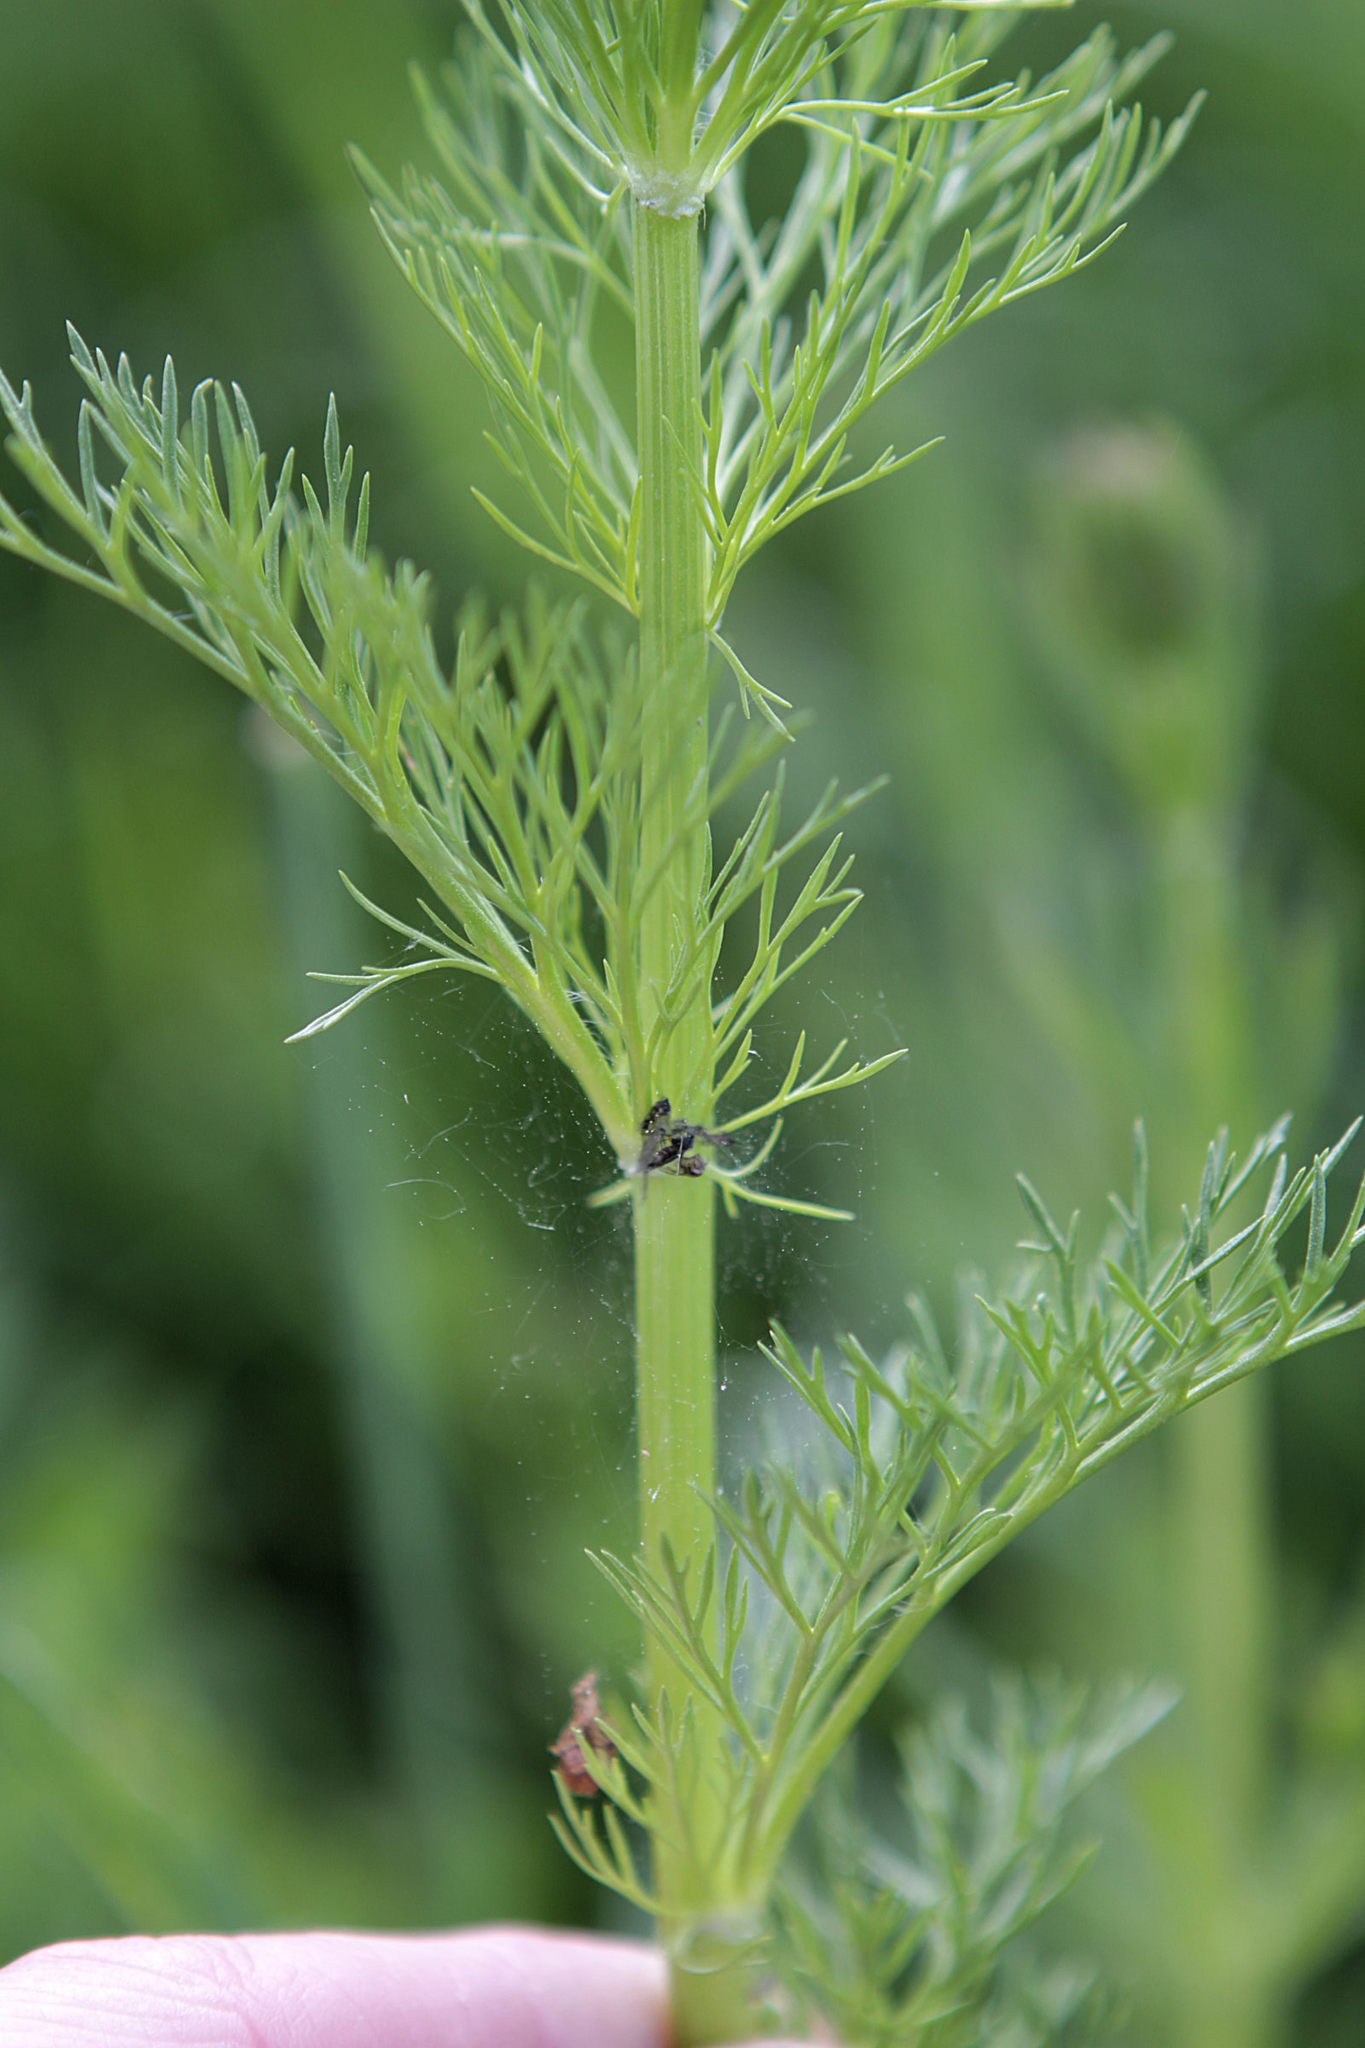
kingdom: Plantae
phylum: Tracheophyta
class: Magnoliopsida
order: Ranunculales
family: Ranunculaceae
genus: Adonis
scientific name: Adonis aestivalis
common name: Summer pheasant's-eye
